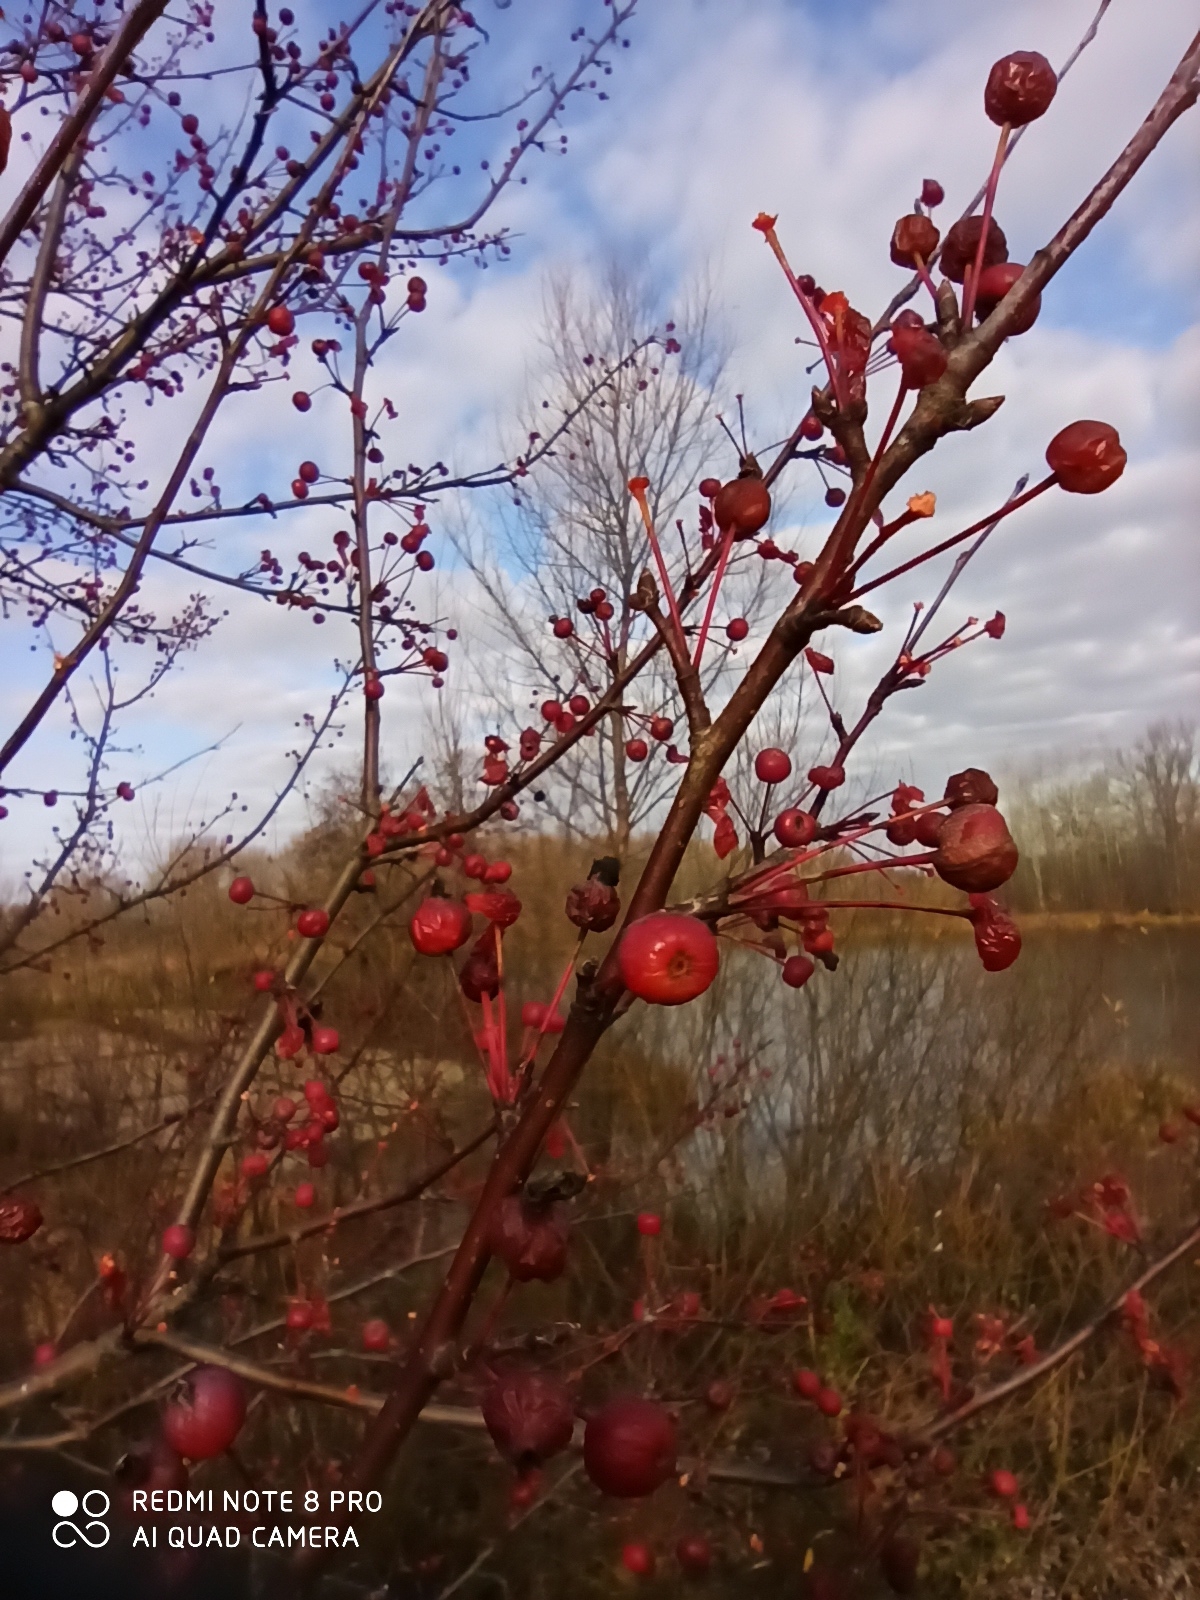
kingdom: Plantae
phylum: Tracheophyta
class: Magnoliopsida
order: Rosales
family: Rosaceae
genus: Malus
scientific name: Malus baccata
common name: Siberian crab
